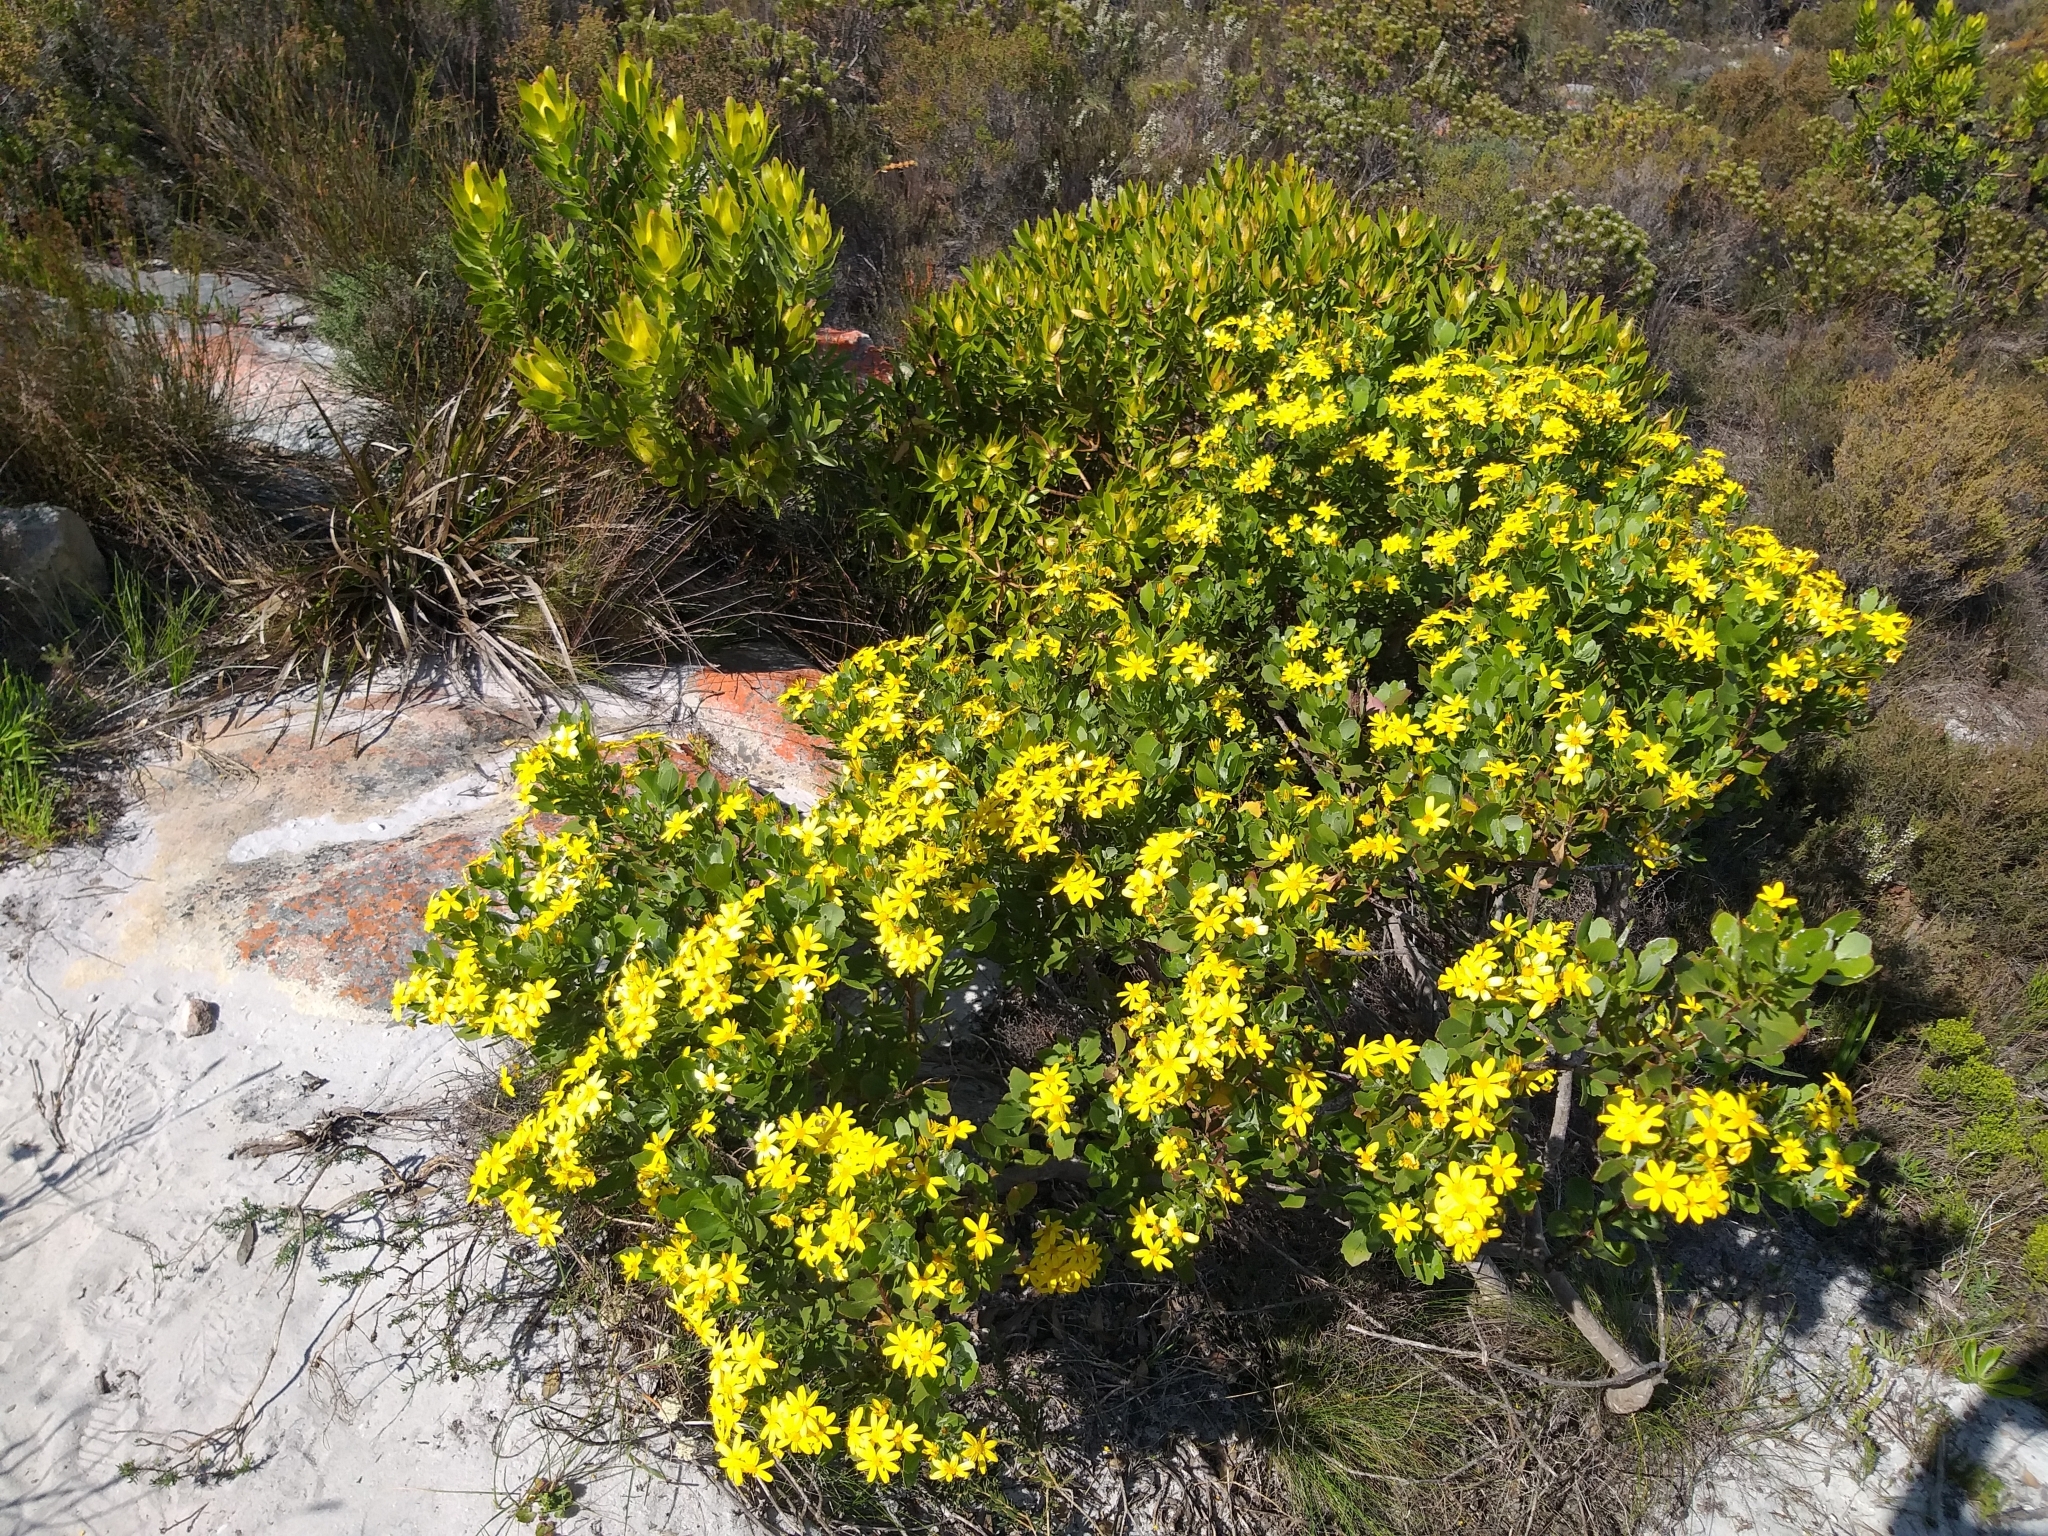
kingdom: Plantae
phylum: Tracheophyta
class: Magnoliopsida
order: Asterales
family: Asteraceae
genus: Osteospermum
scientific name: Osteospermum moniliferum
